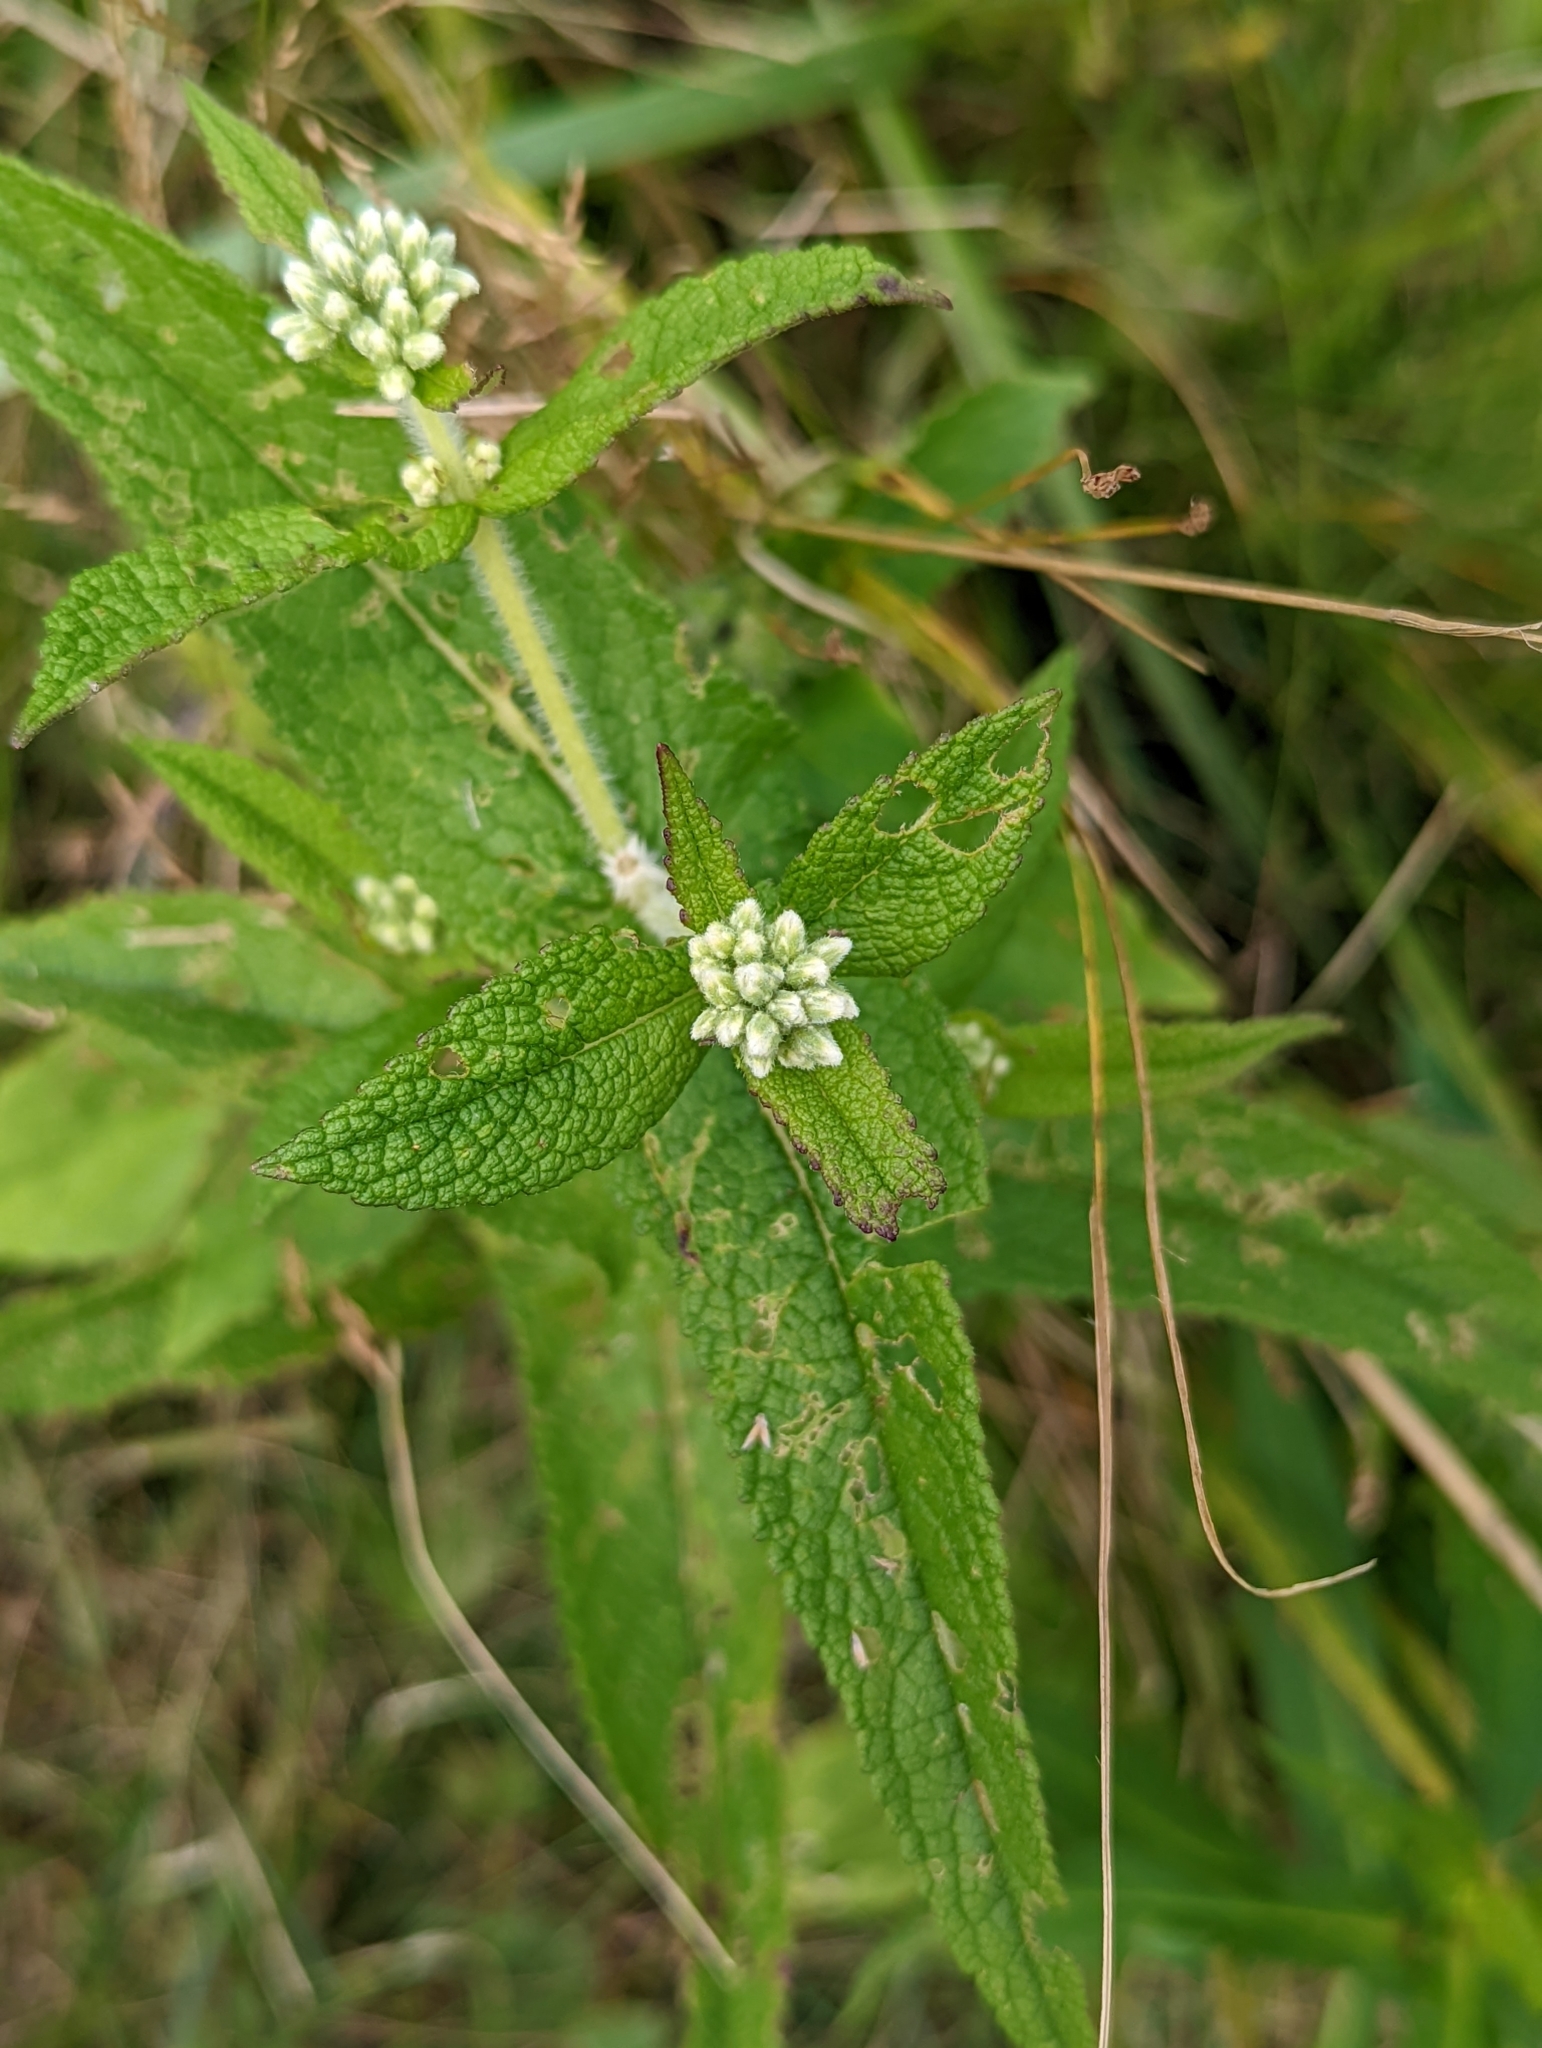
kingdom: Plantae
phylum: Tracheophyta
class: Magnoliopsida
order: Asterales
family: Asteraceae
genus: Eupatorium
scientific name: Eupatorium perfoliatum
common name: Boneset
